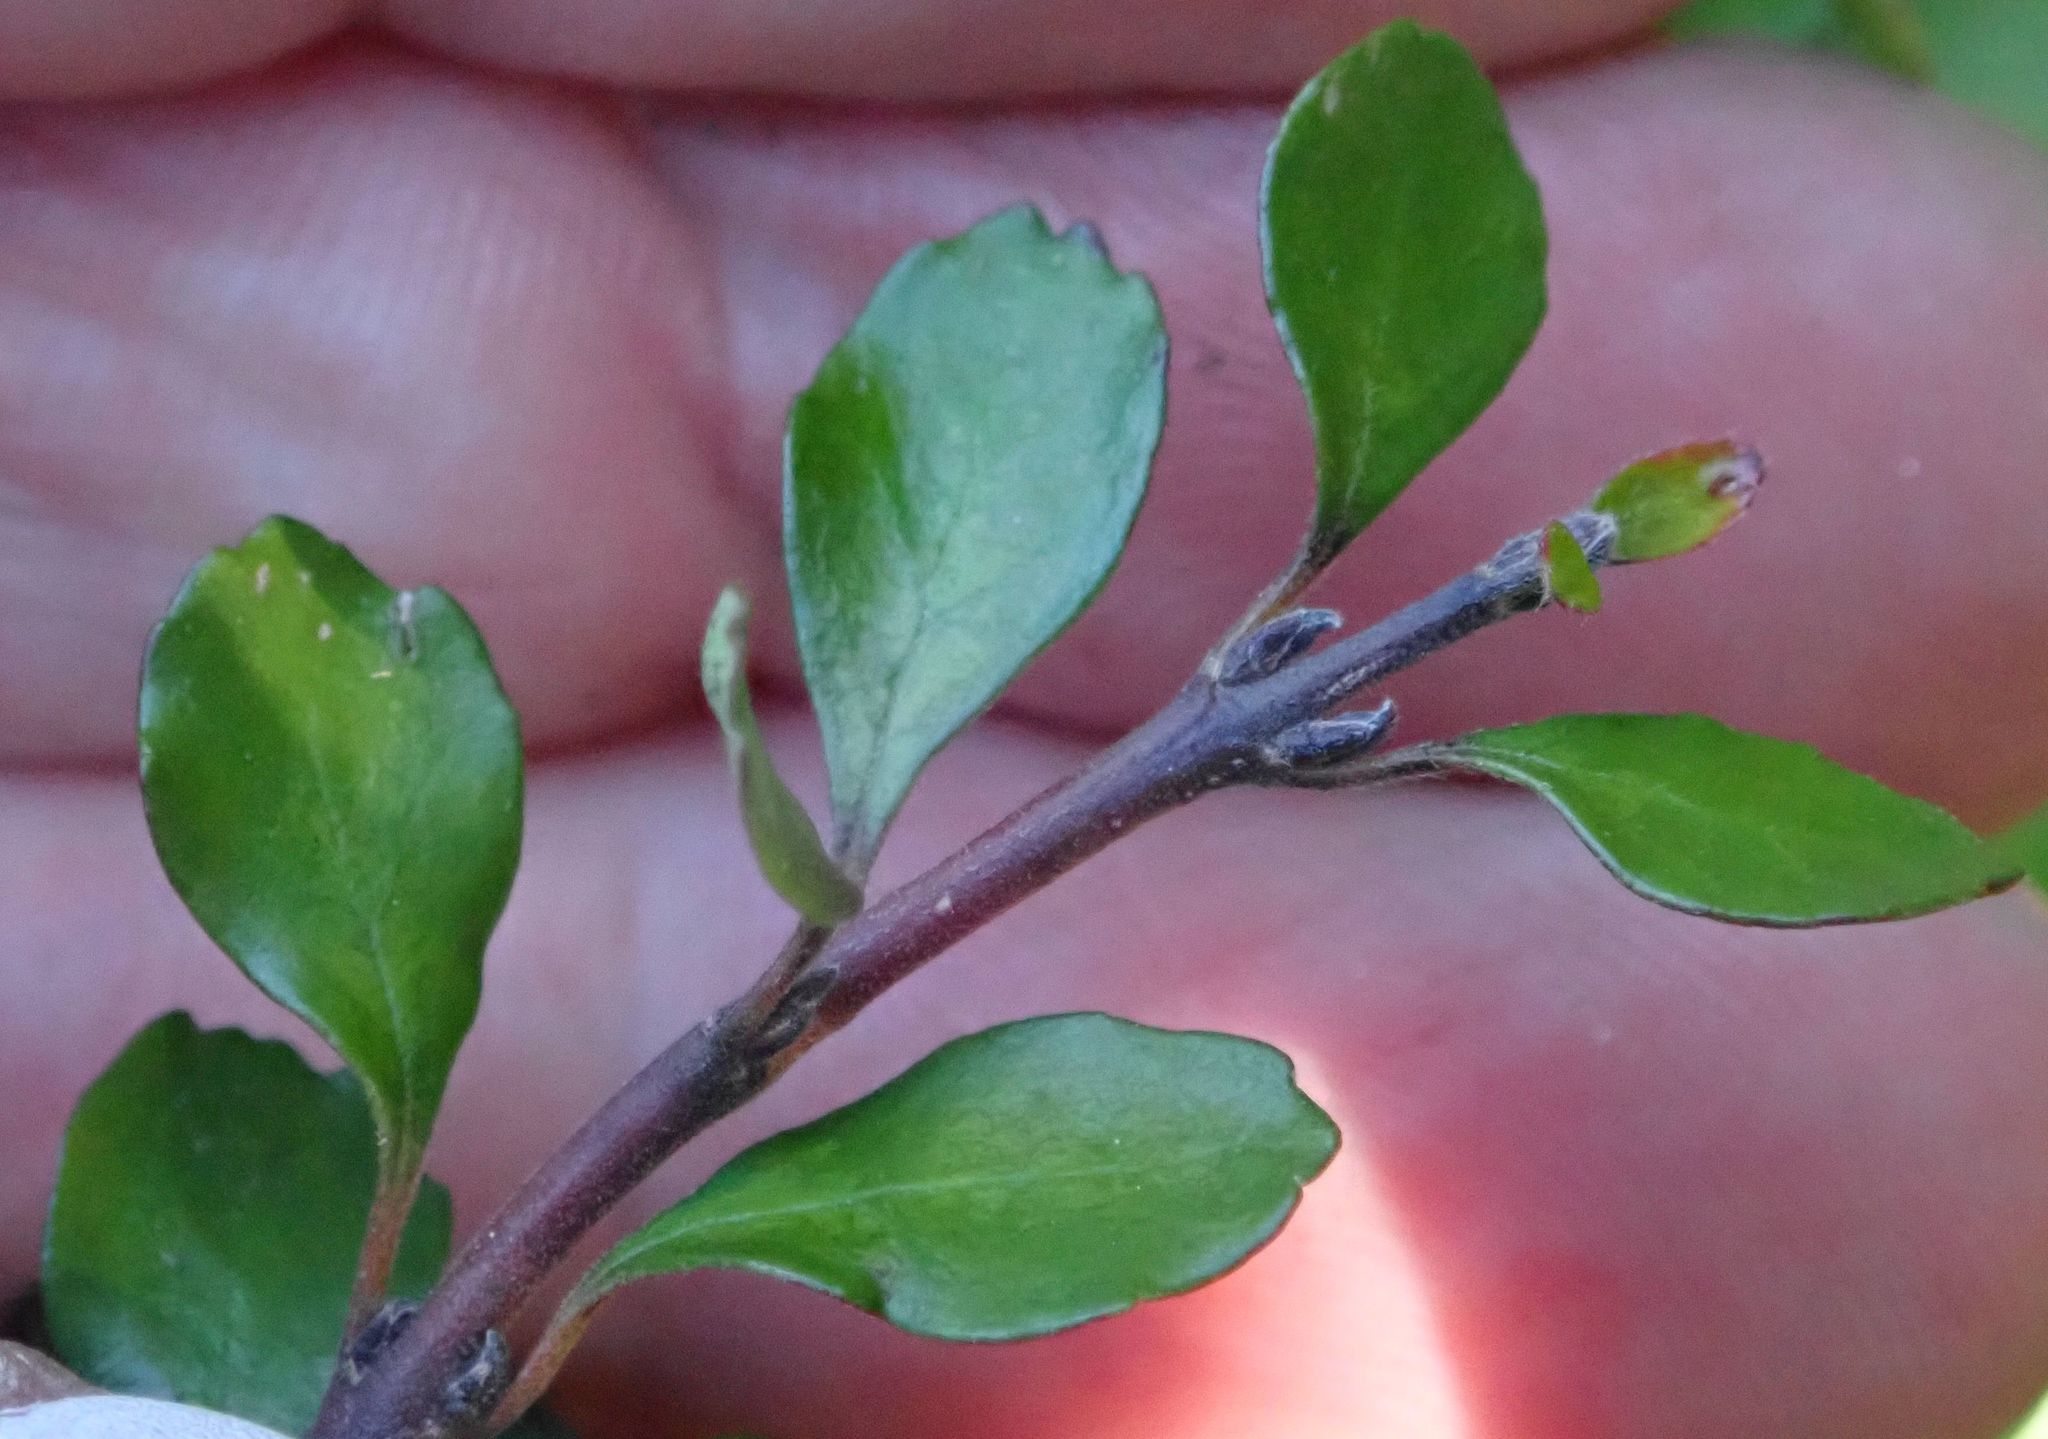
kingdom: Plantae
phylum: Tracheophyta
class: Magnoliopsida
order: Oxalidales
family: Elaeocarpaceae
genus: Aristotelia
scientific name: Aristotelia fruticosa
